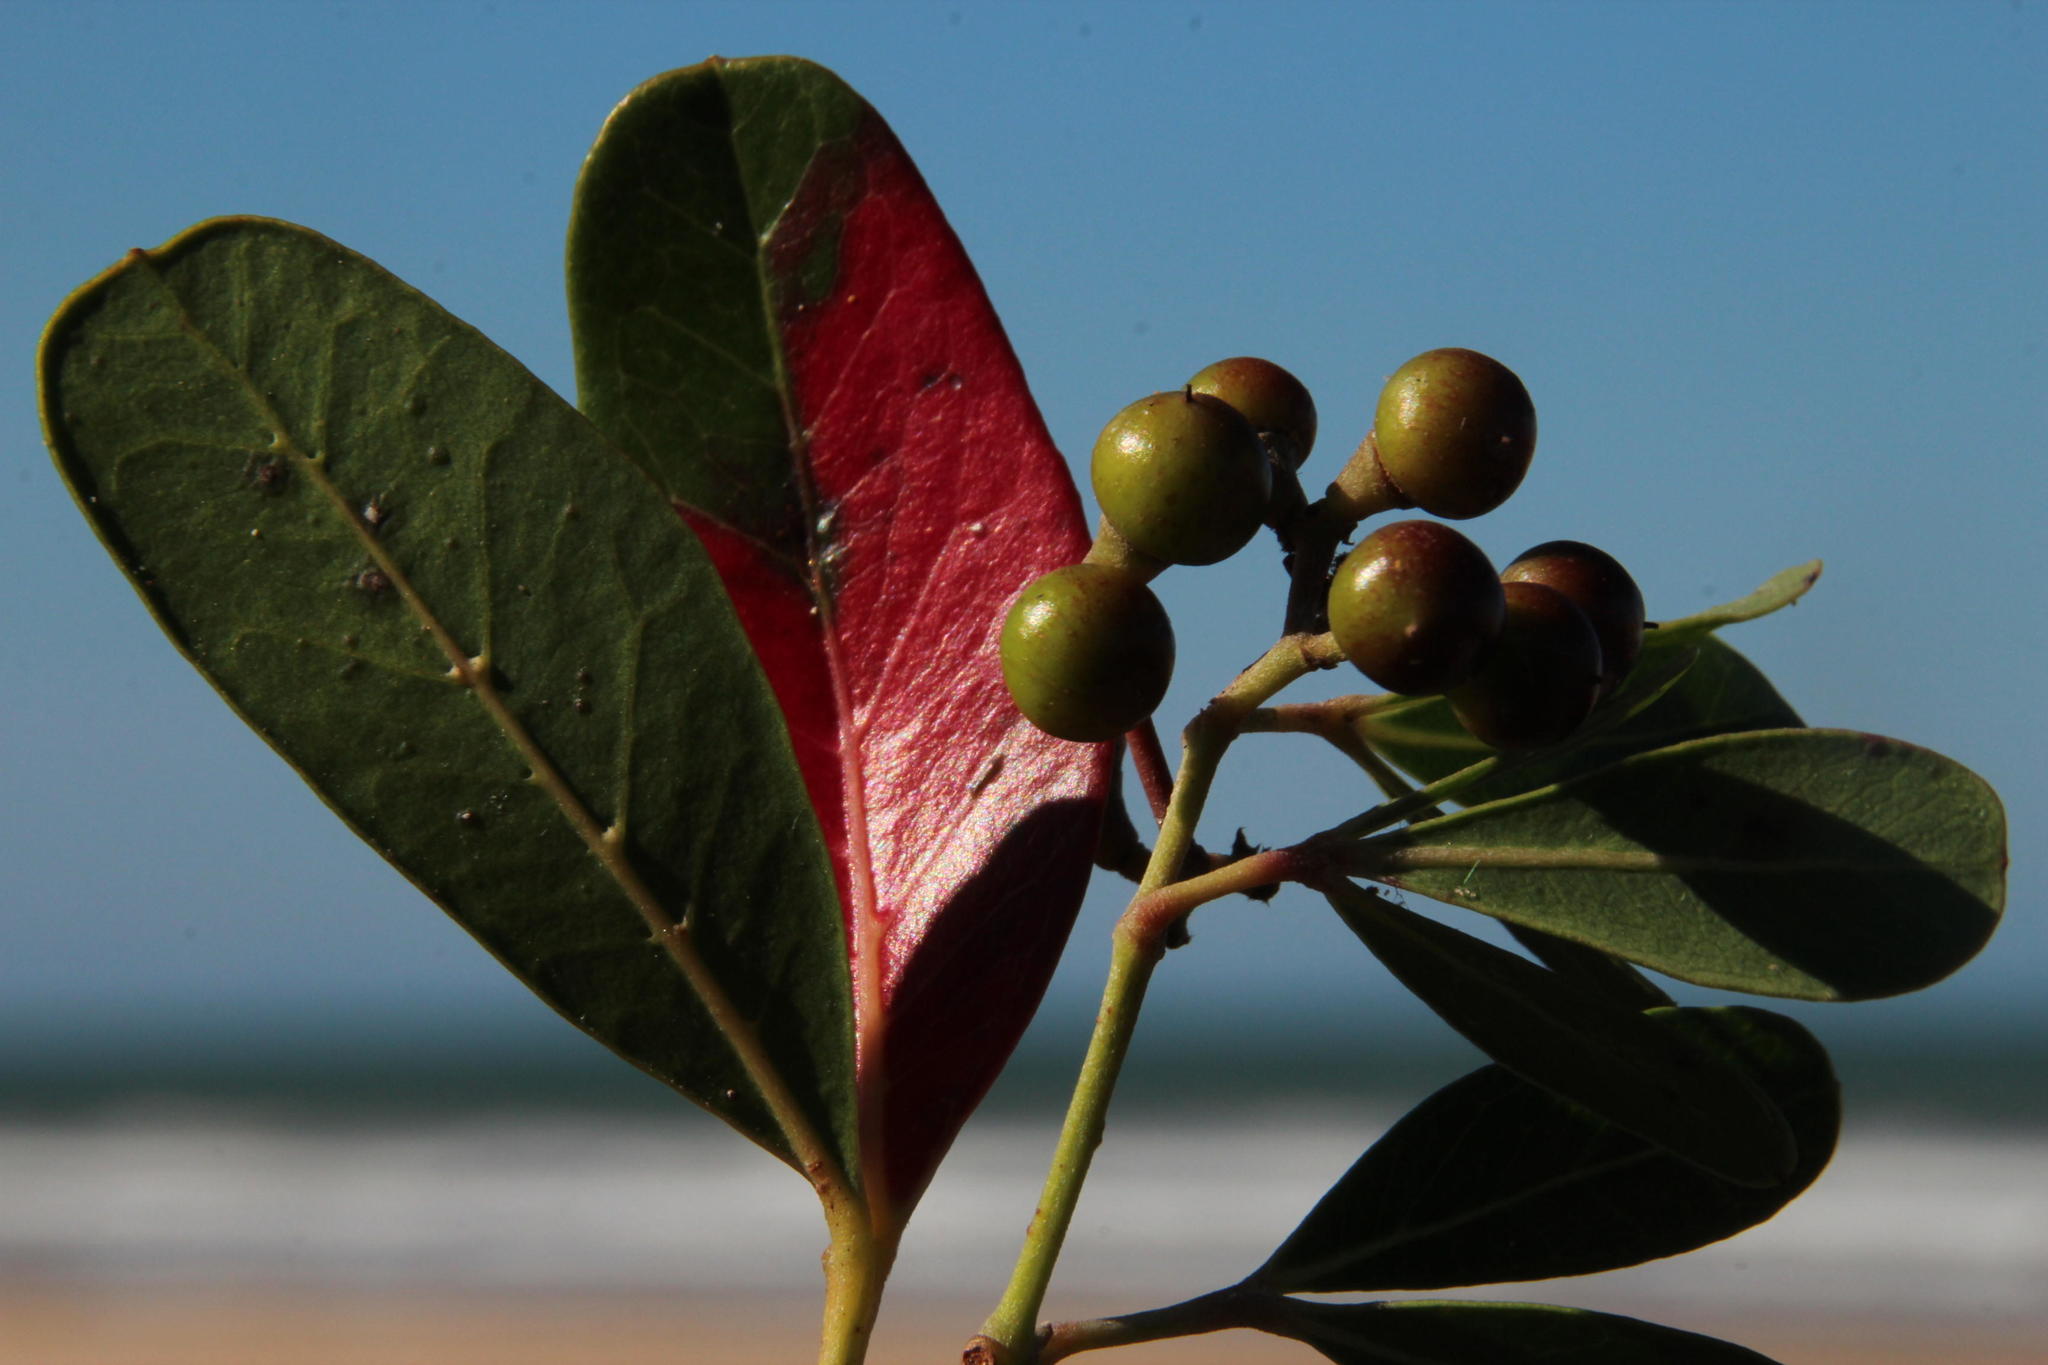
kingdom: Plantae
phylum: Tracheophyta
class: Magnoliopsida
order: Vitales
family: Vitaceae
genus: Rhoicissus
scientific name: Rhoicissus digitata
